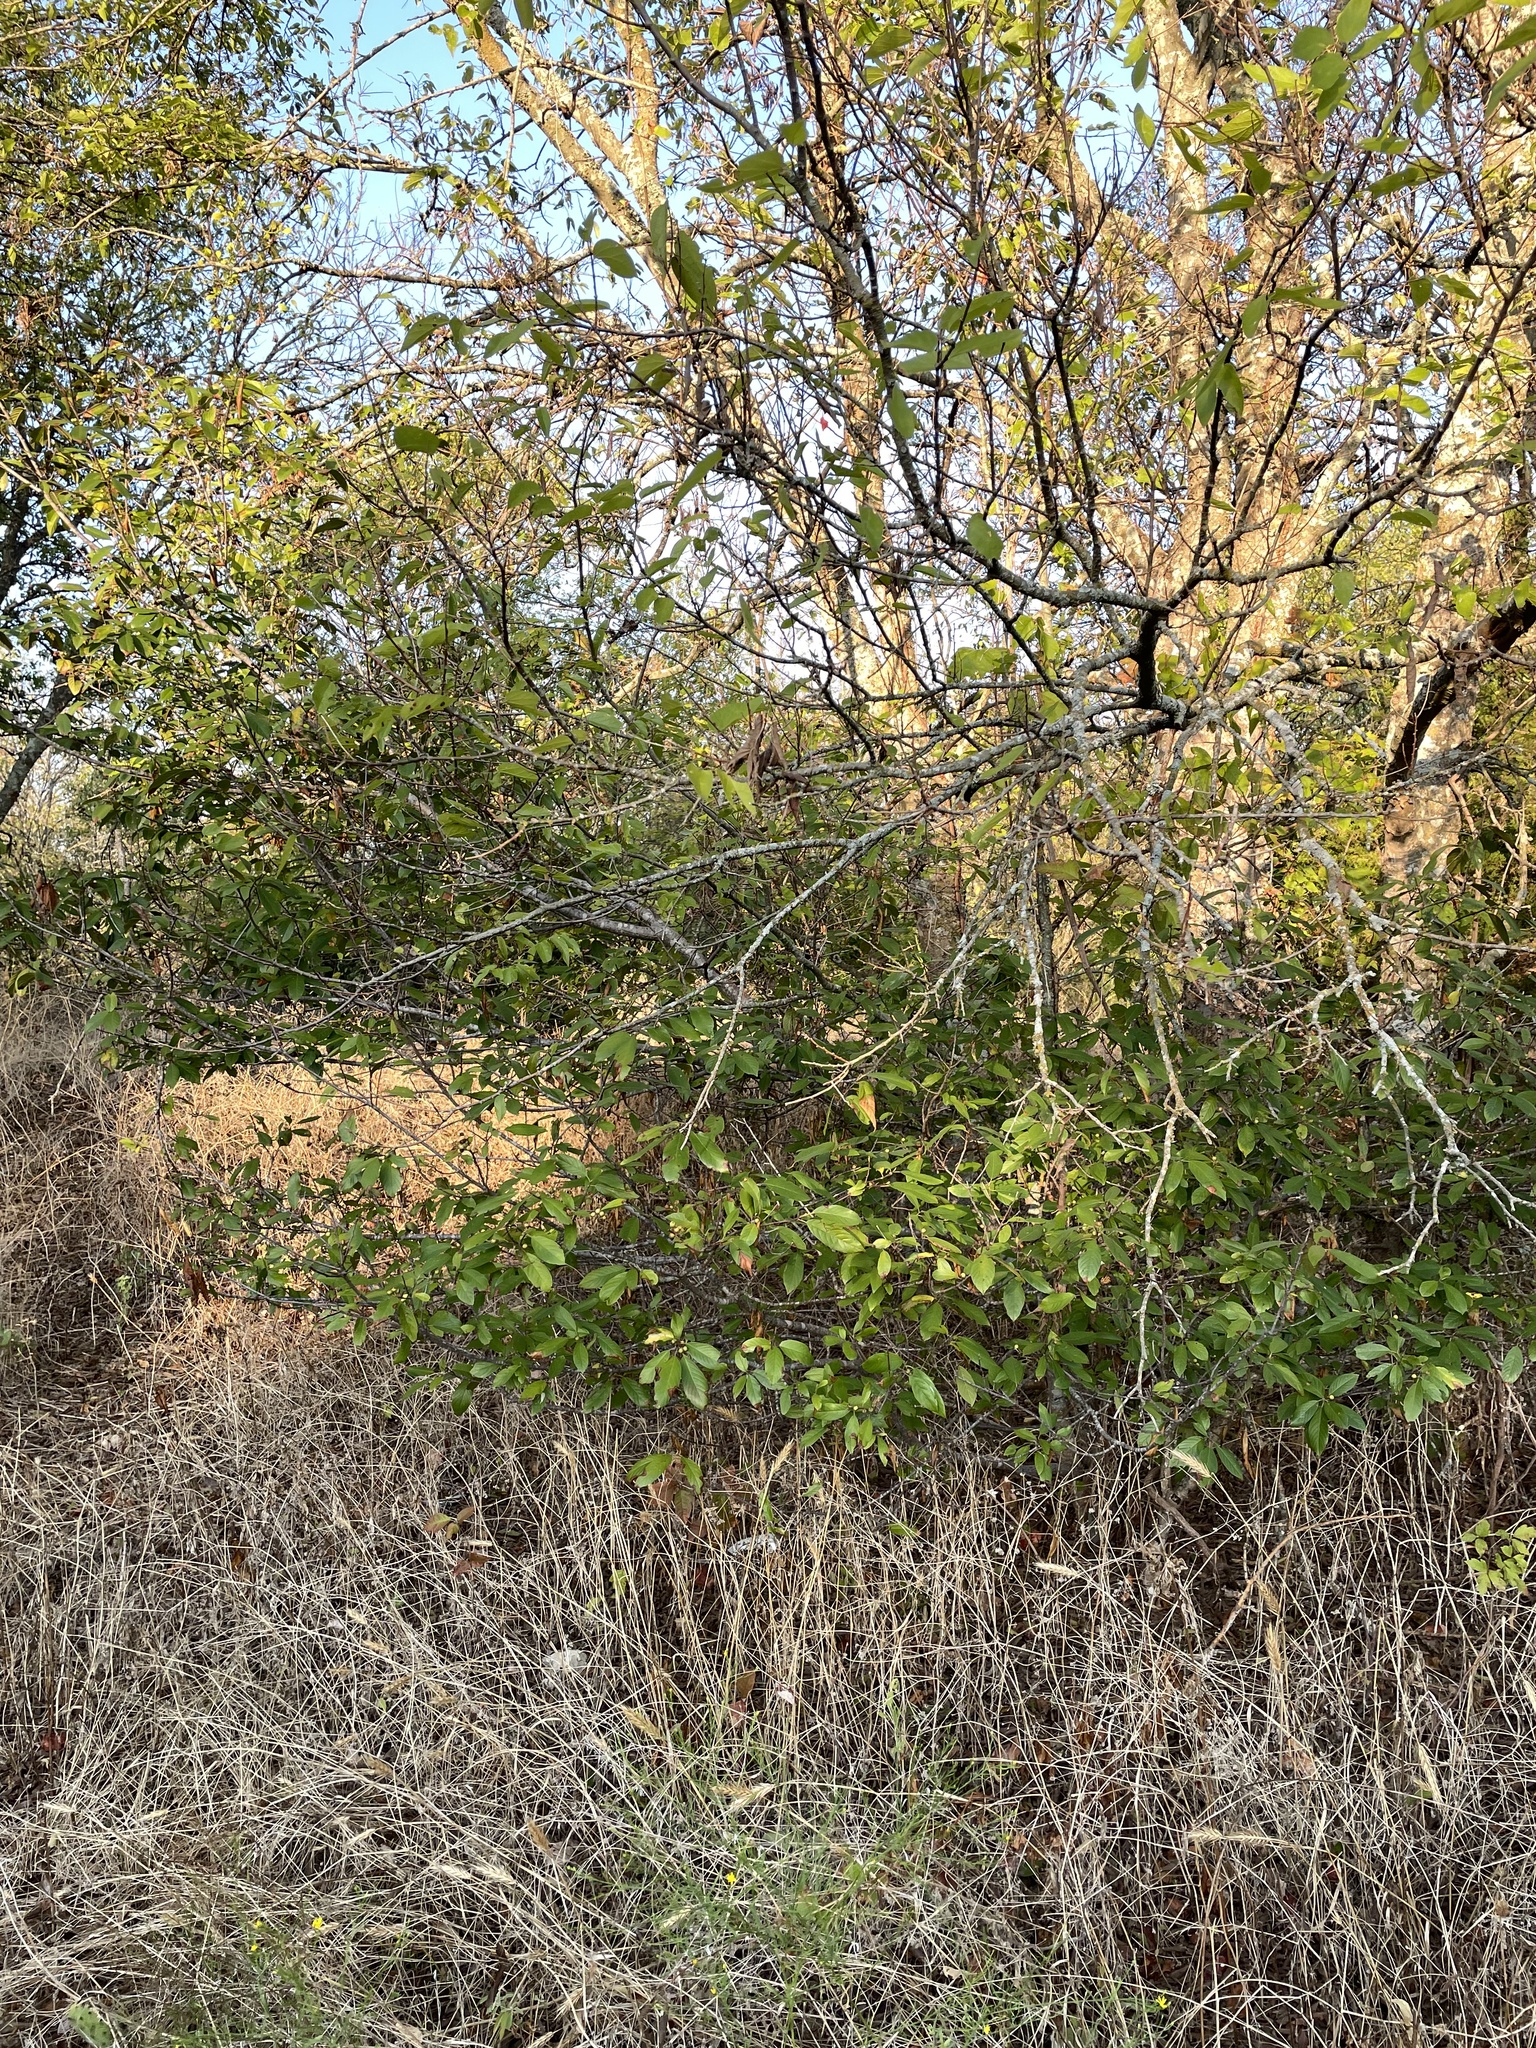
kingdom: Plantae
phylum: Tracheophyta
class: Magnoliopsida
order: Rosales
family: Rhamnaceae
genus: Frangula
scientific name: Frangula caroliniana
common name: Carolina buckthorn
